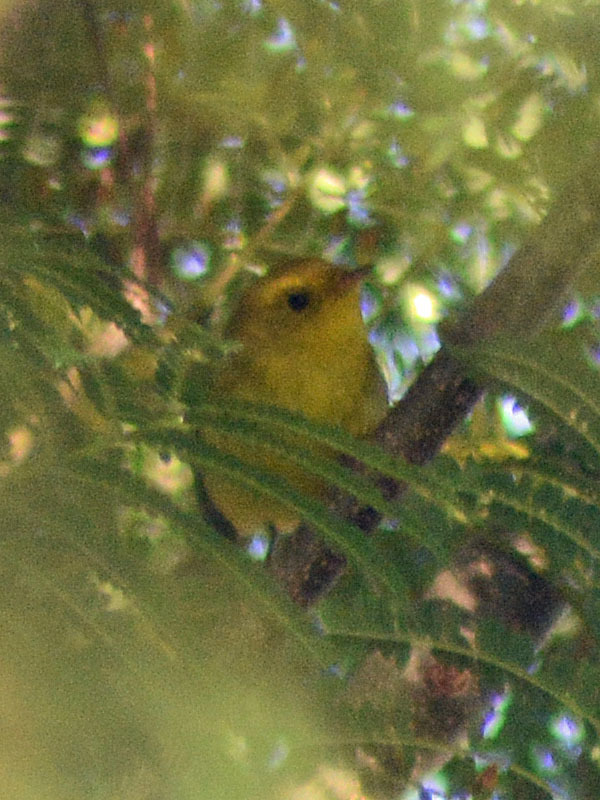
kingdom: Animalia
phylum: Chordata
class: Aves
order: Passeriformes
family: Parulidae
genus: Cardellina
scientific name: Cardellina pusilla
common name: Wilson's warbler
